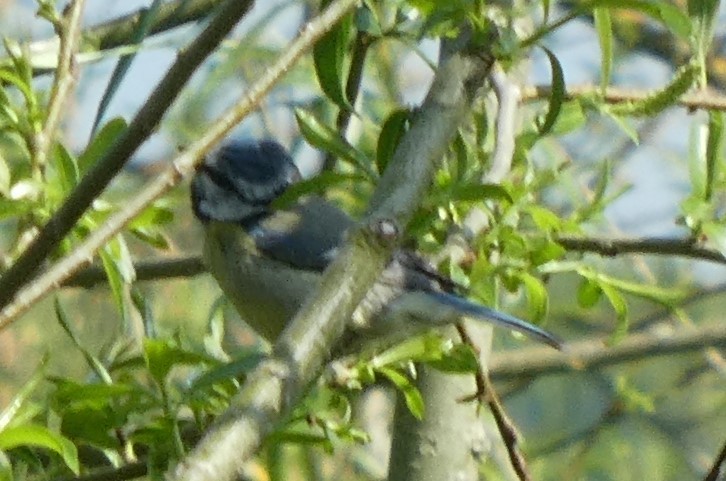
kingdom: Animalia
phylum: Chordata
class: Aves
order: Passeriformes
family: Paridae
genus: Cyanistes
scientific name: Cyanistes caeruleus
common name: Eurasian blue tit
